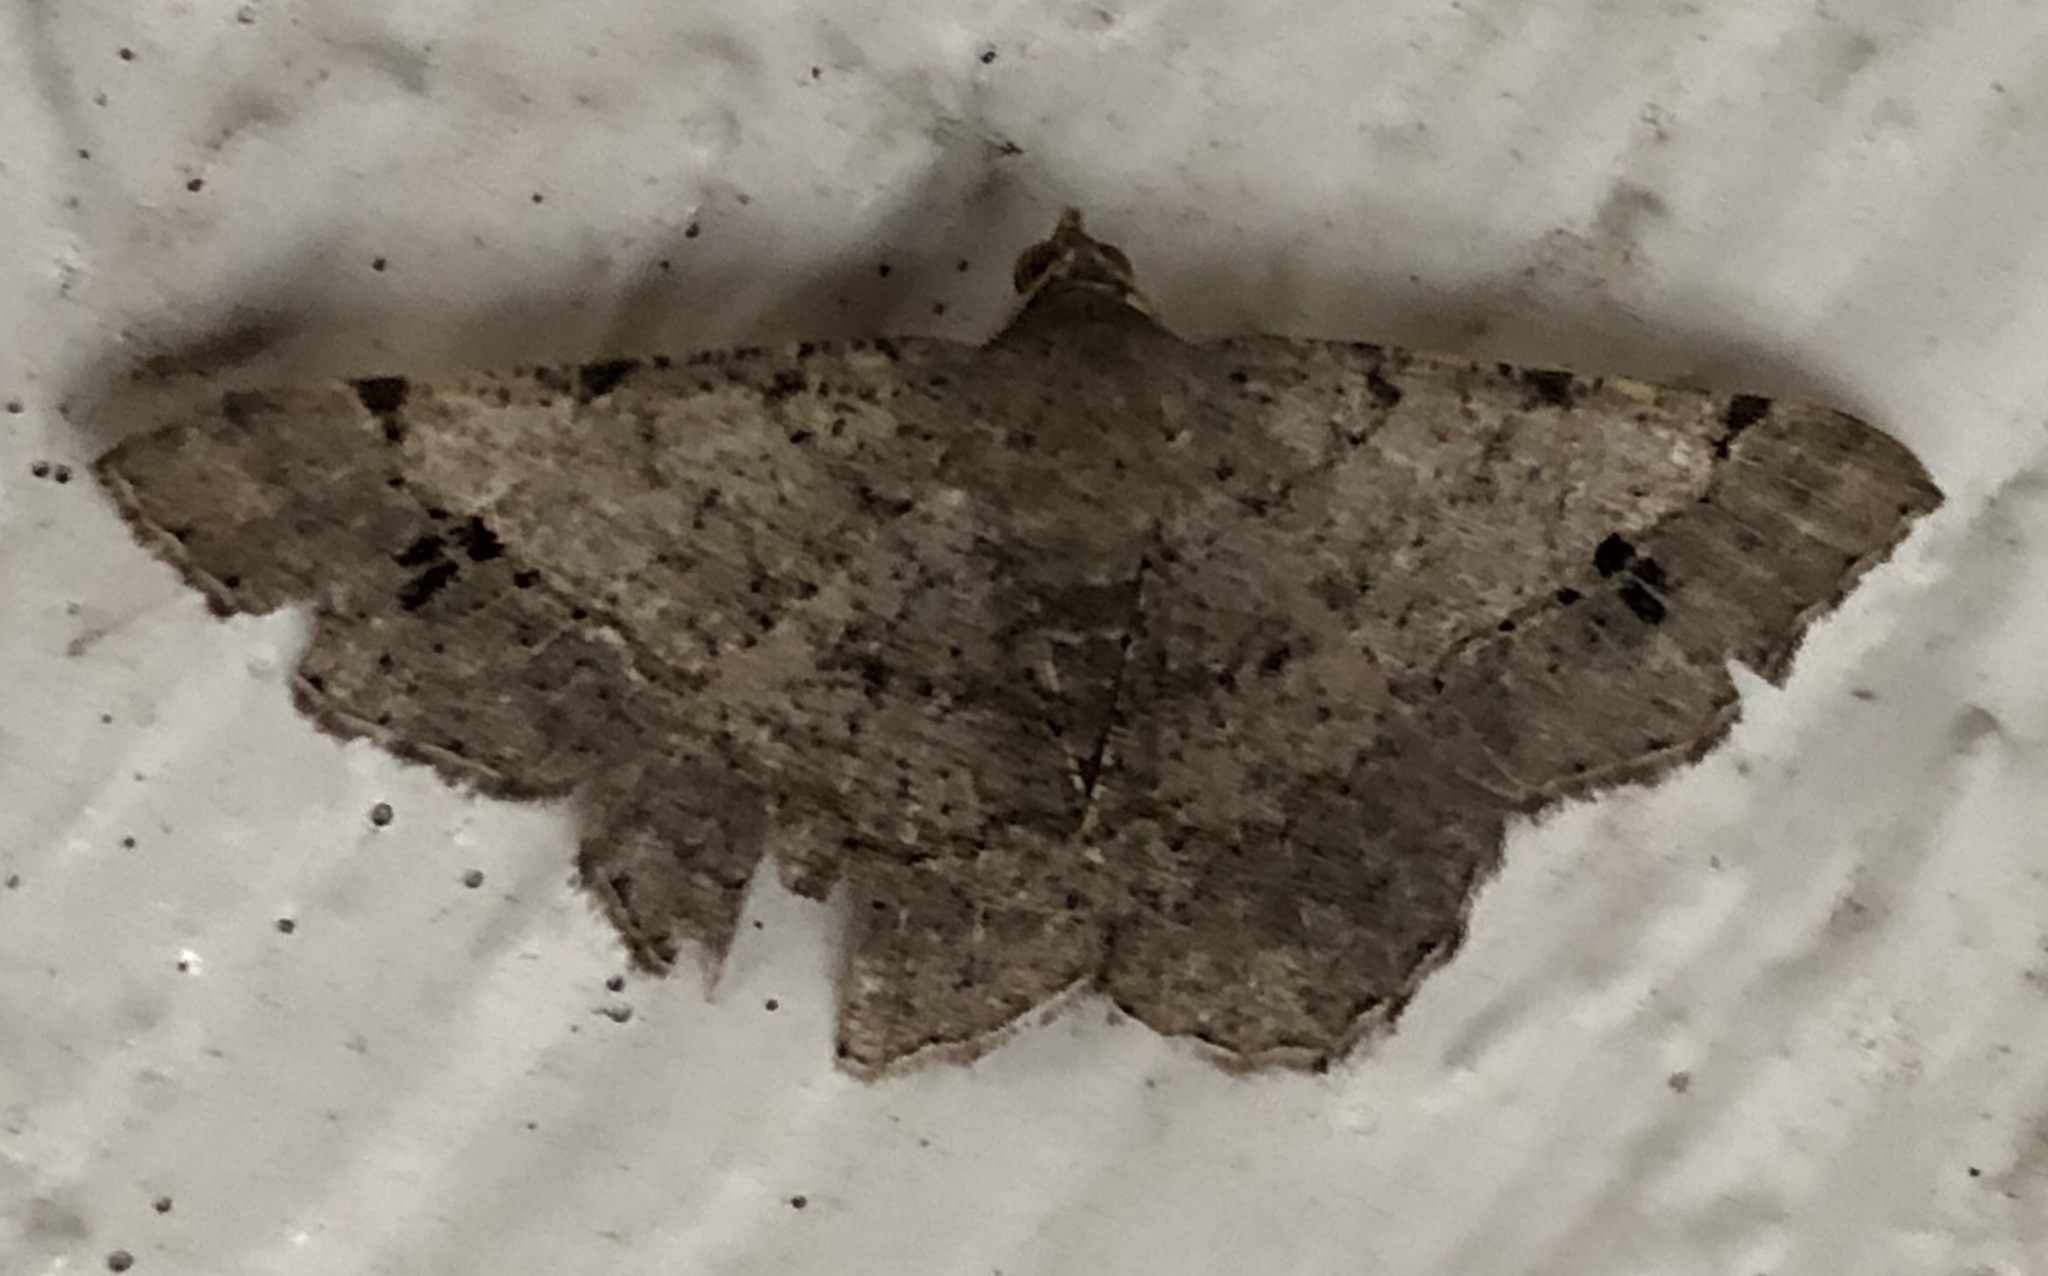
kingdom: Animalia
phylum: Arthropoda
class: Insecta
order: Lepidoptera
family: Geometridae
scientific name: Geometridae
